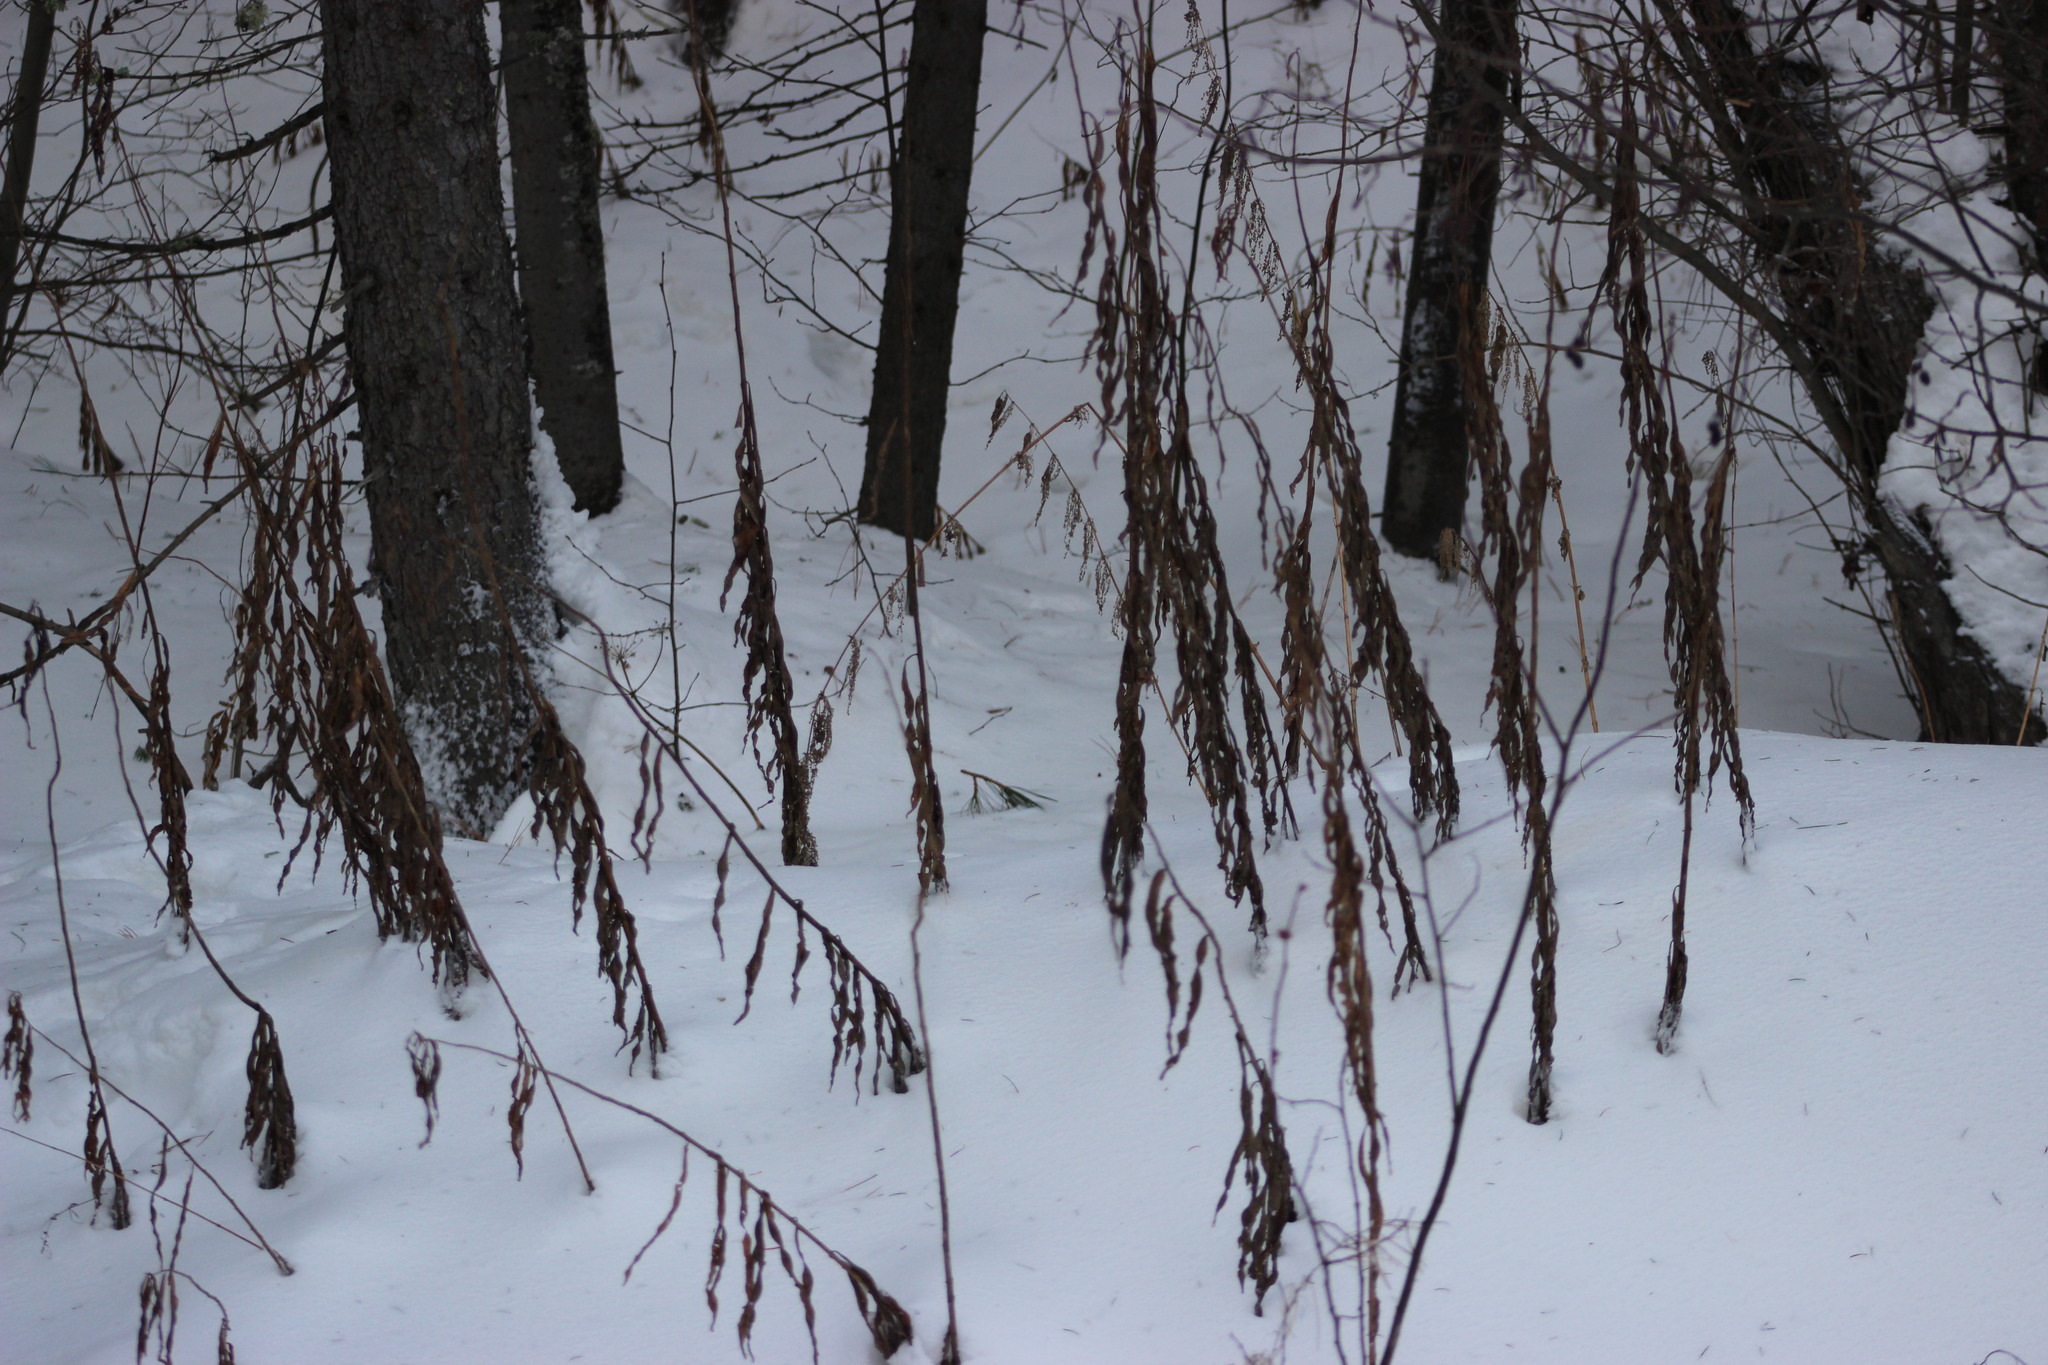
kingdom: Plantae
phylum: Tracheophyta
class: Magnoliopsida
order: Myrtales
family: Onagraceae
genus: Chamaenerion
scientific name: Chamaenerion angustifolium
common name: Fireweed
